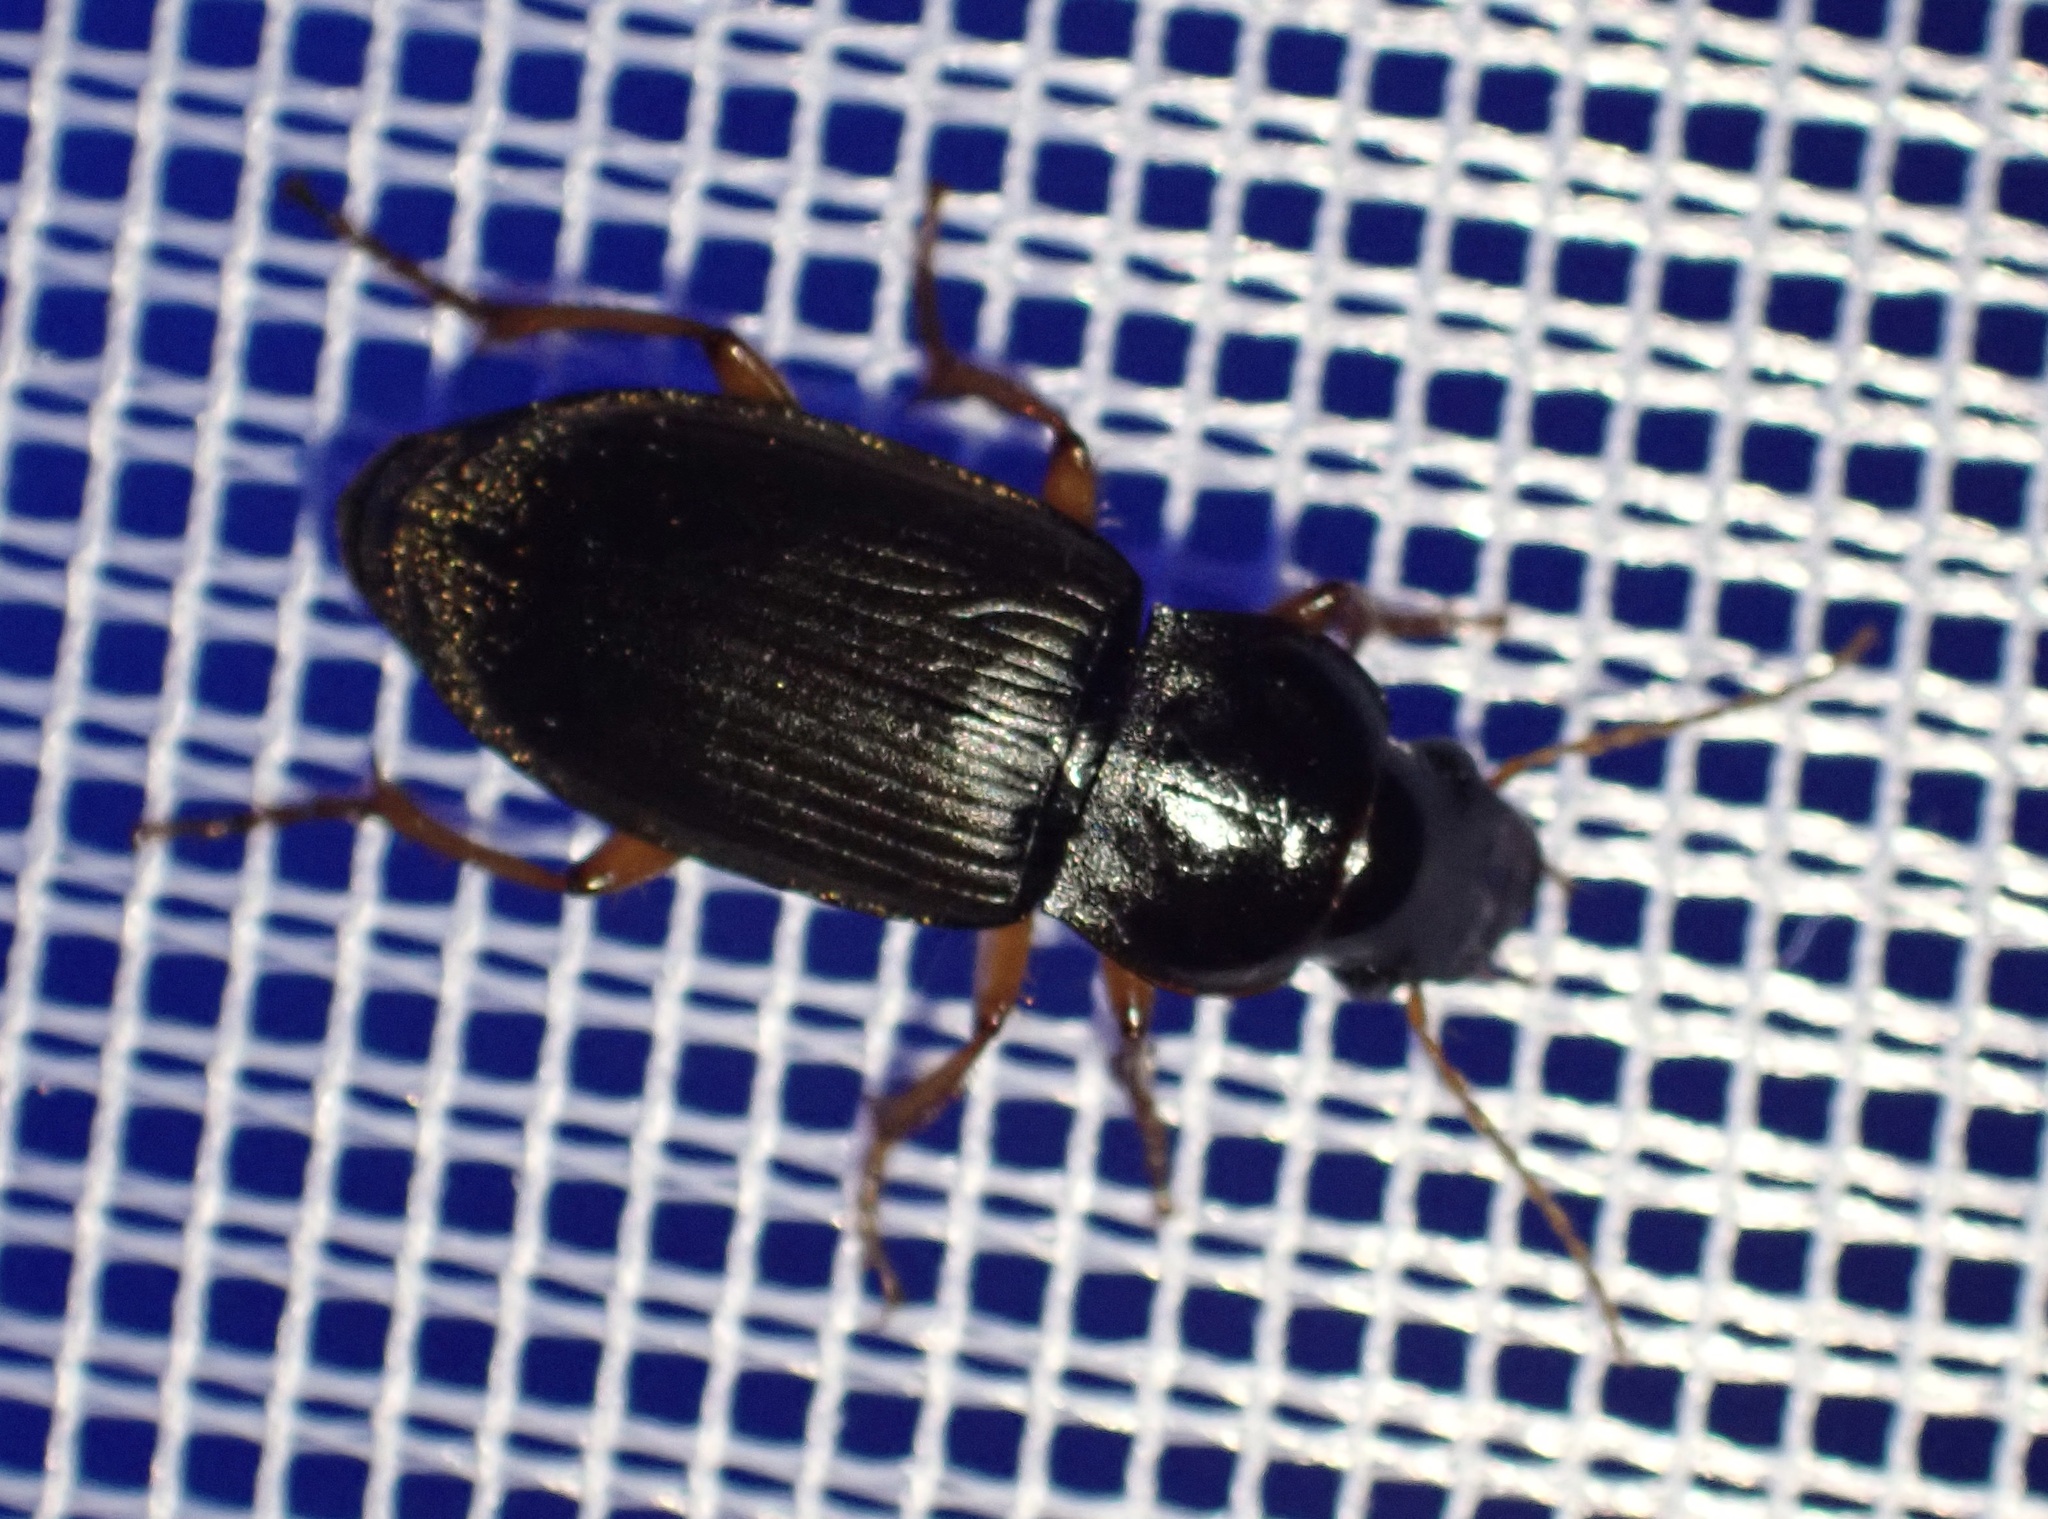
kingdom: Animalia
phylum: Arthropoda
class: Insecta
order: Coleoptera
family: Carabidae
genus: Harpalus
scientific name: Harpalus rufipes
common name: Strawberry harp ground beetle
